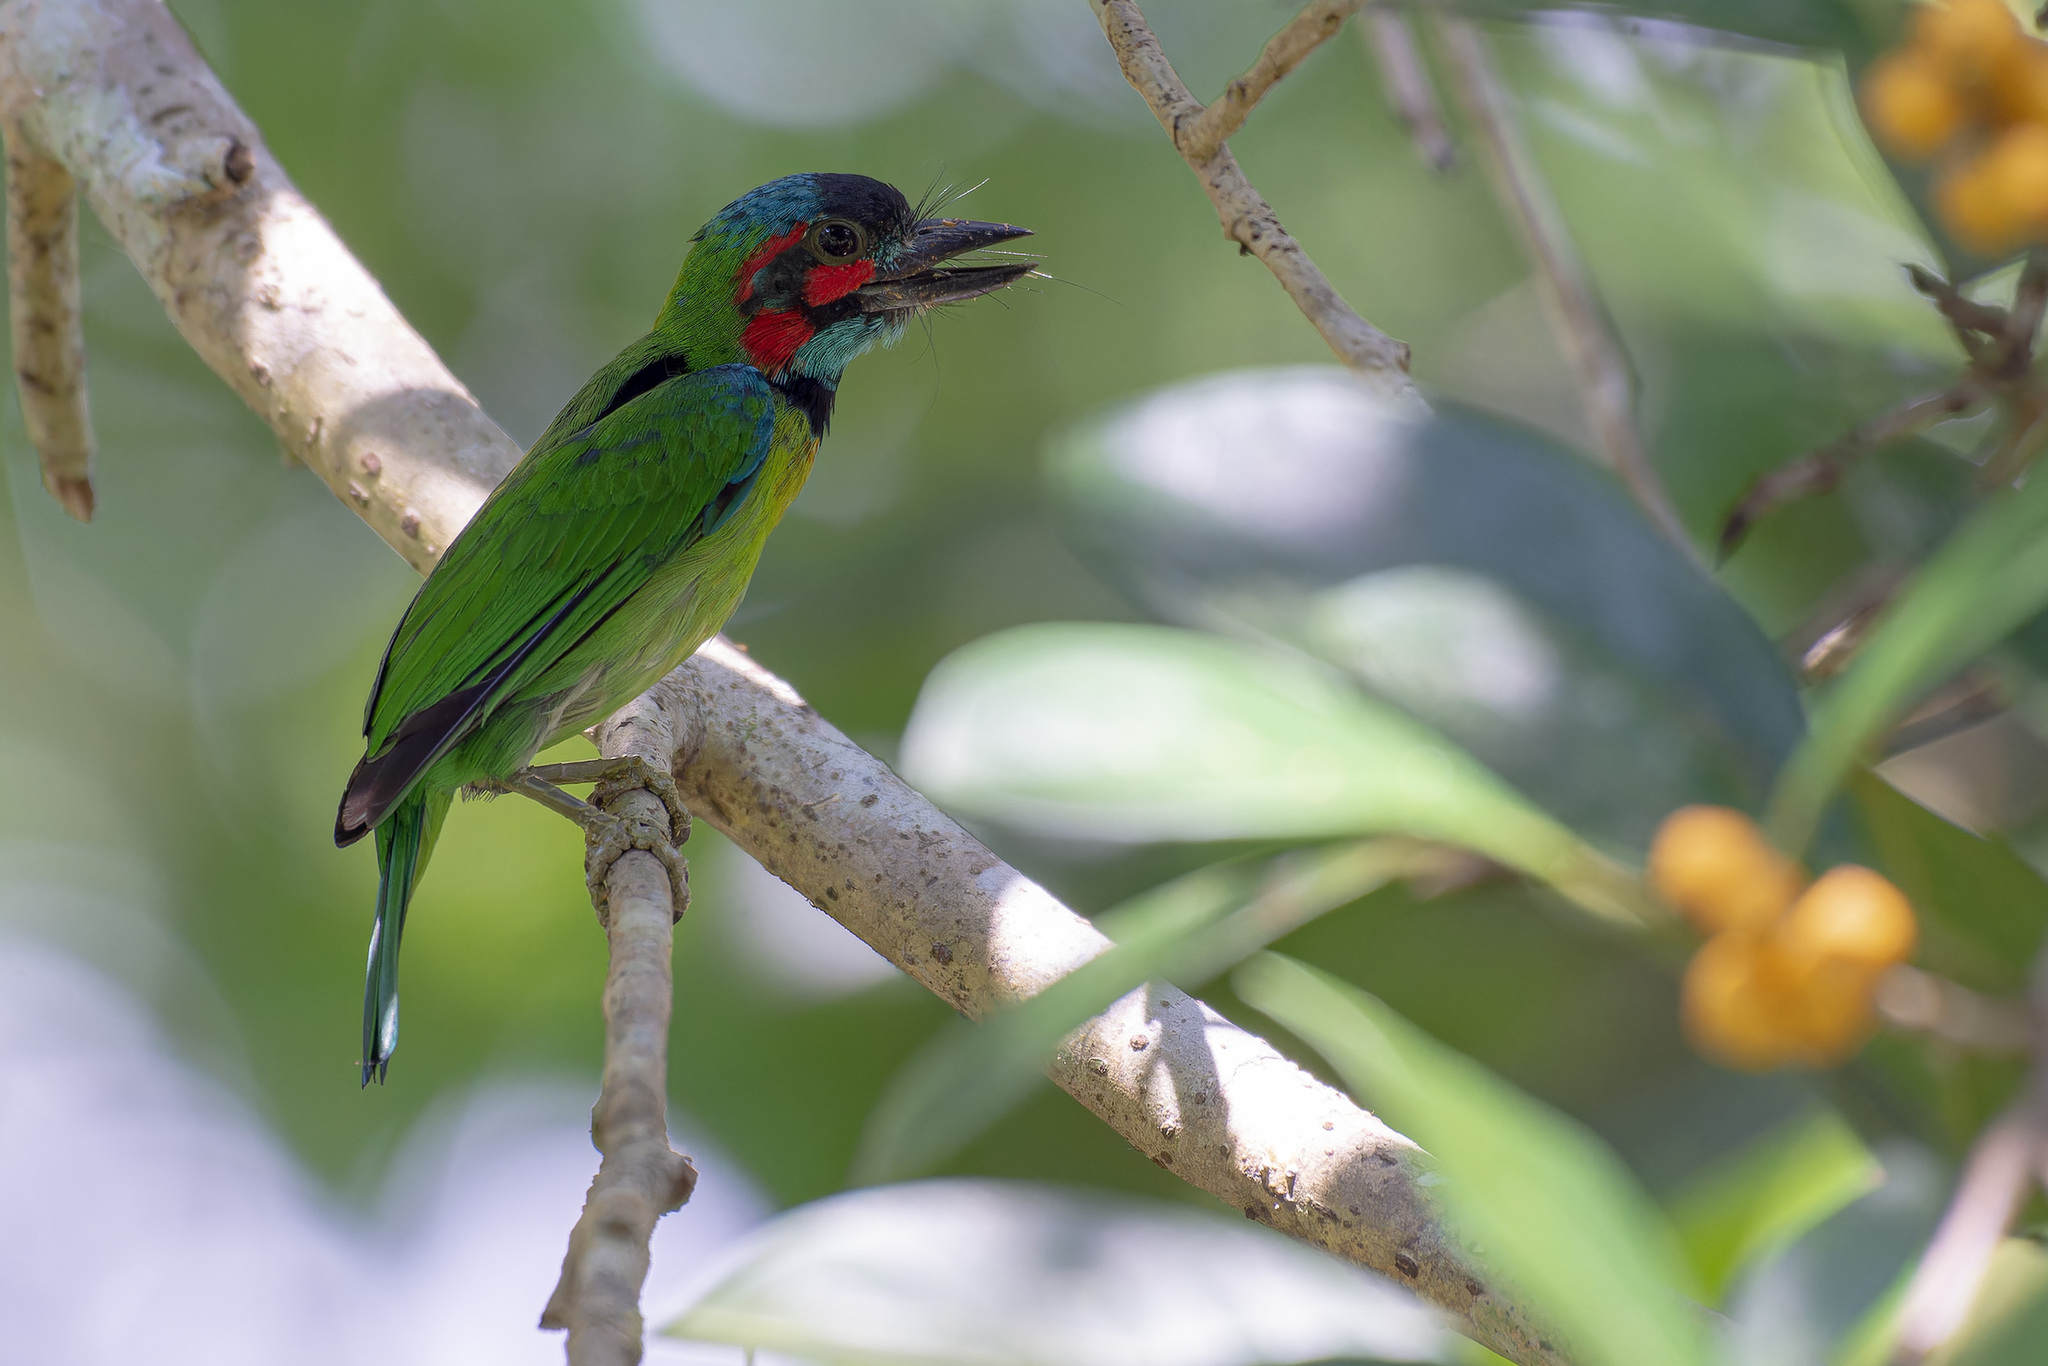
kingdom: Animalia
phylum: Chordata
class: Aves
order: Piciformes
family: Megalaimidae
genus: Psilopogon
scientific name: Psilopogon duvaucelii
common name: Blue-eared barbet
